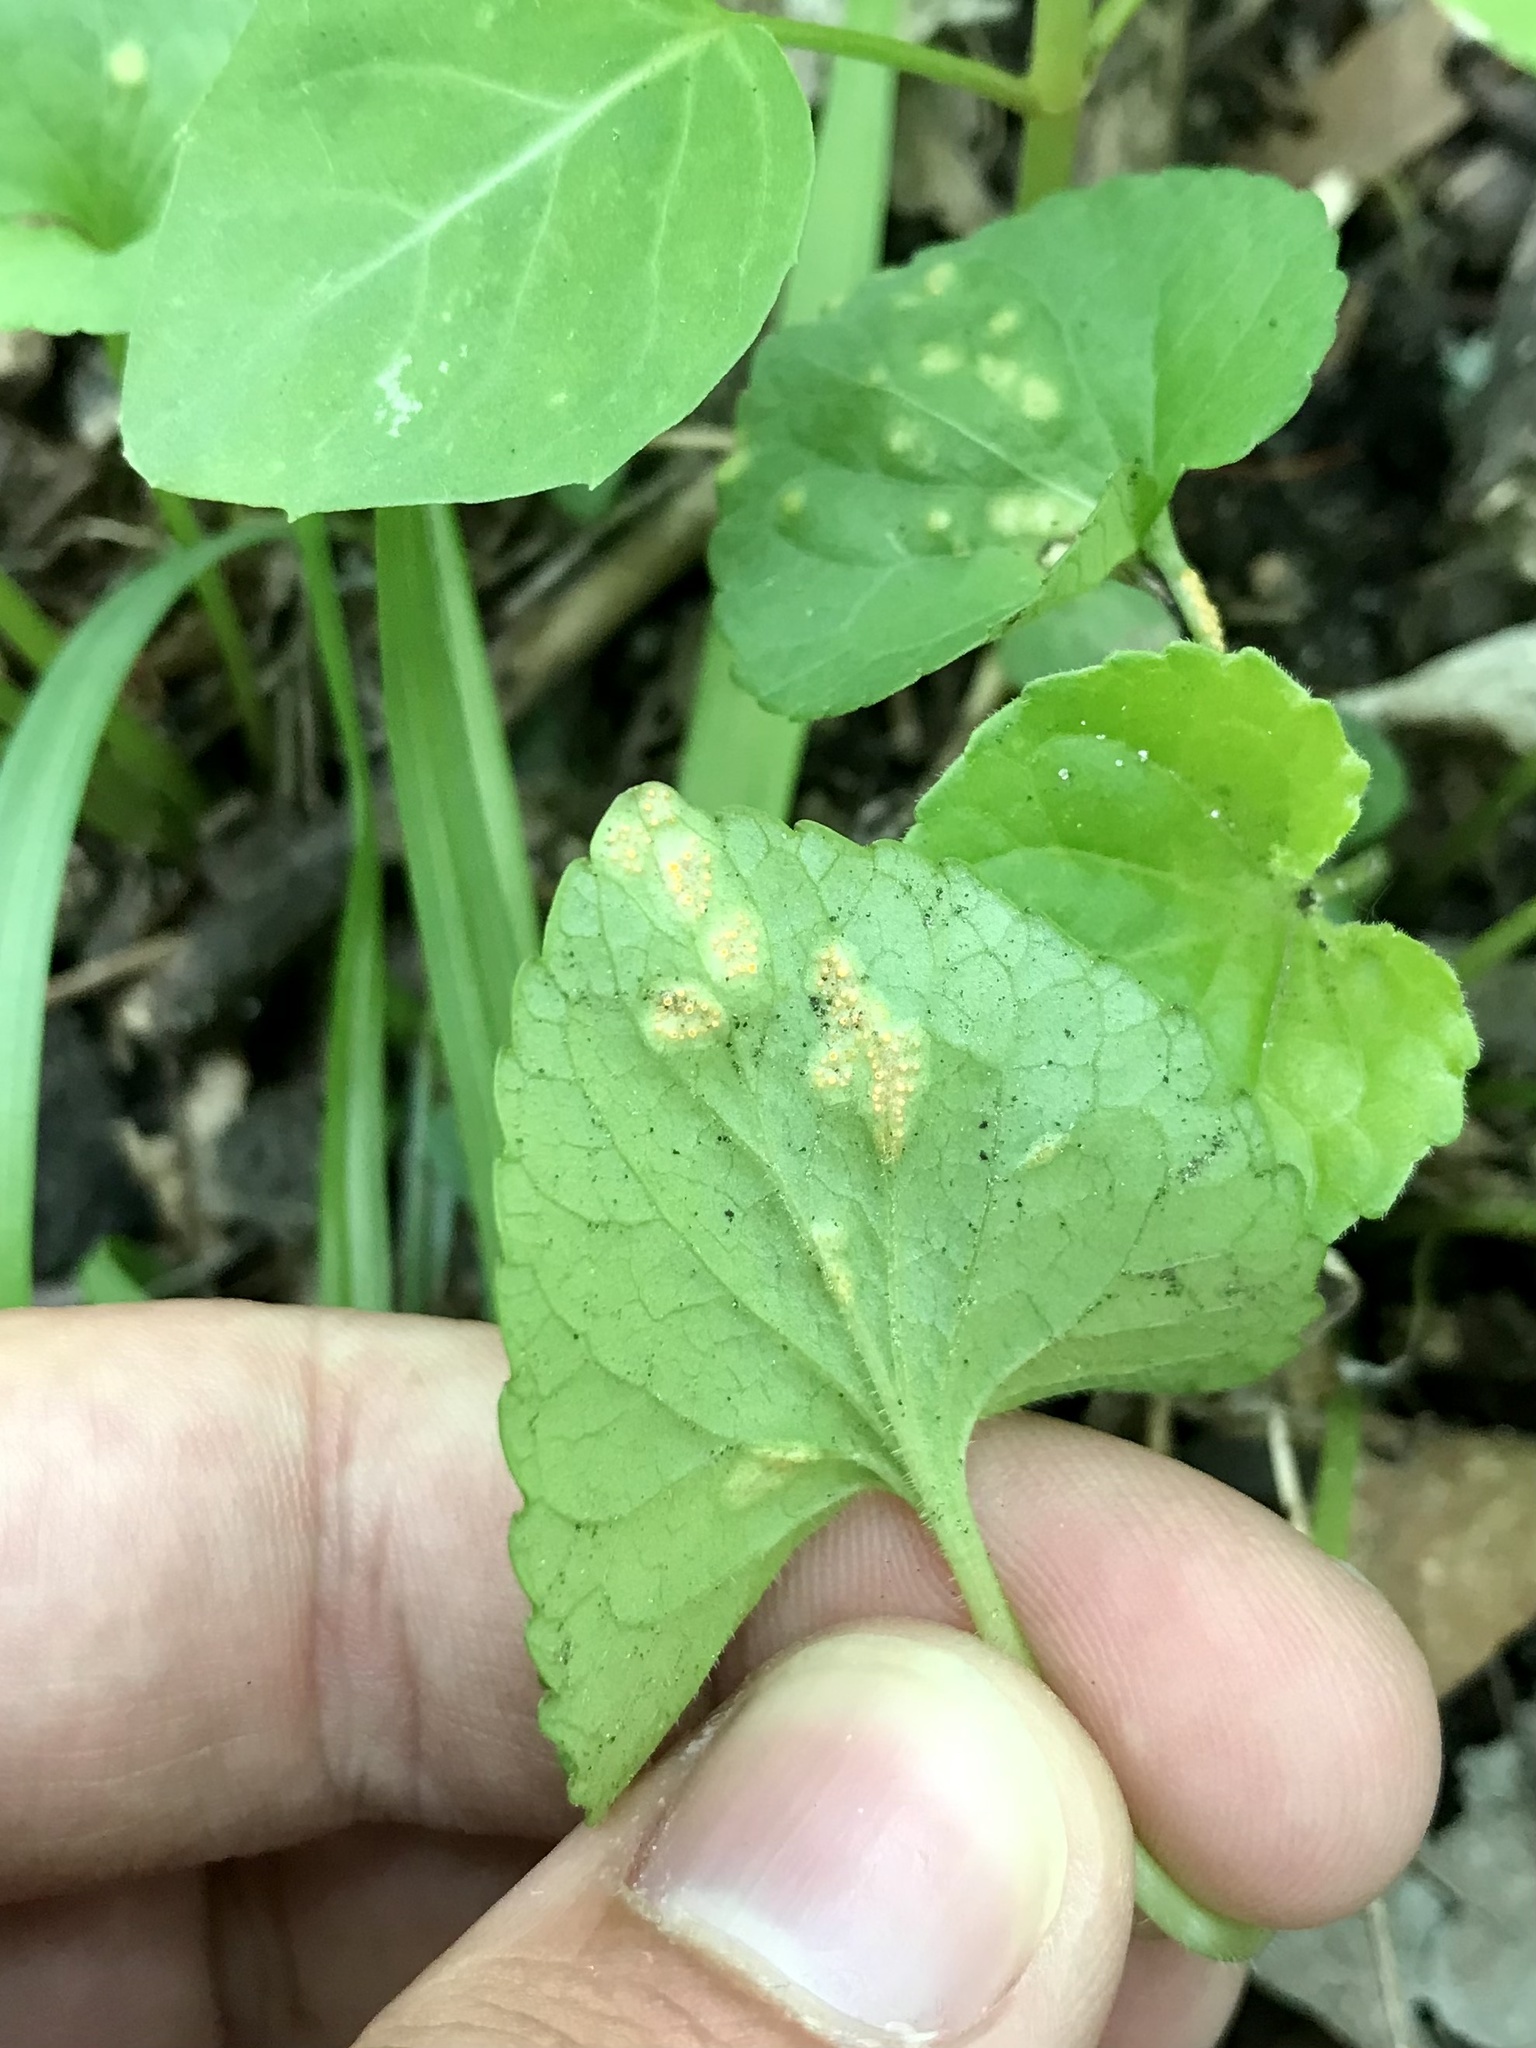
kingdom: Fungi
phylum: Basidiomycota
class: Pucciniomycetes
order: Pucciniales
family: Pucciniaceae
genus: Puccinia
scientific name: Puccinia violae
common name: Violet rust
